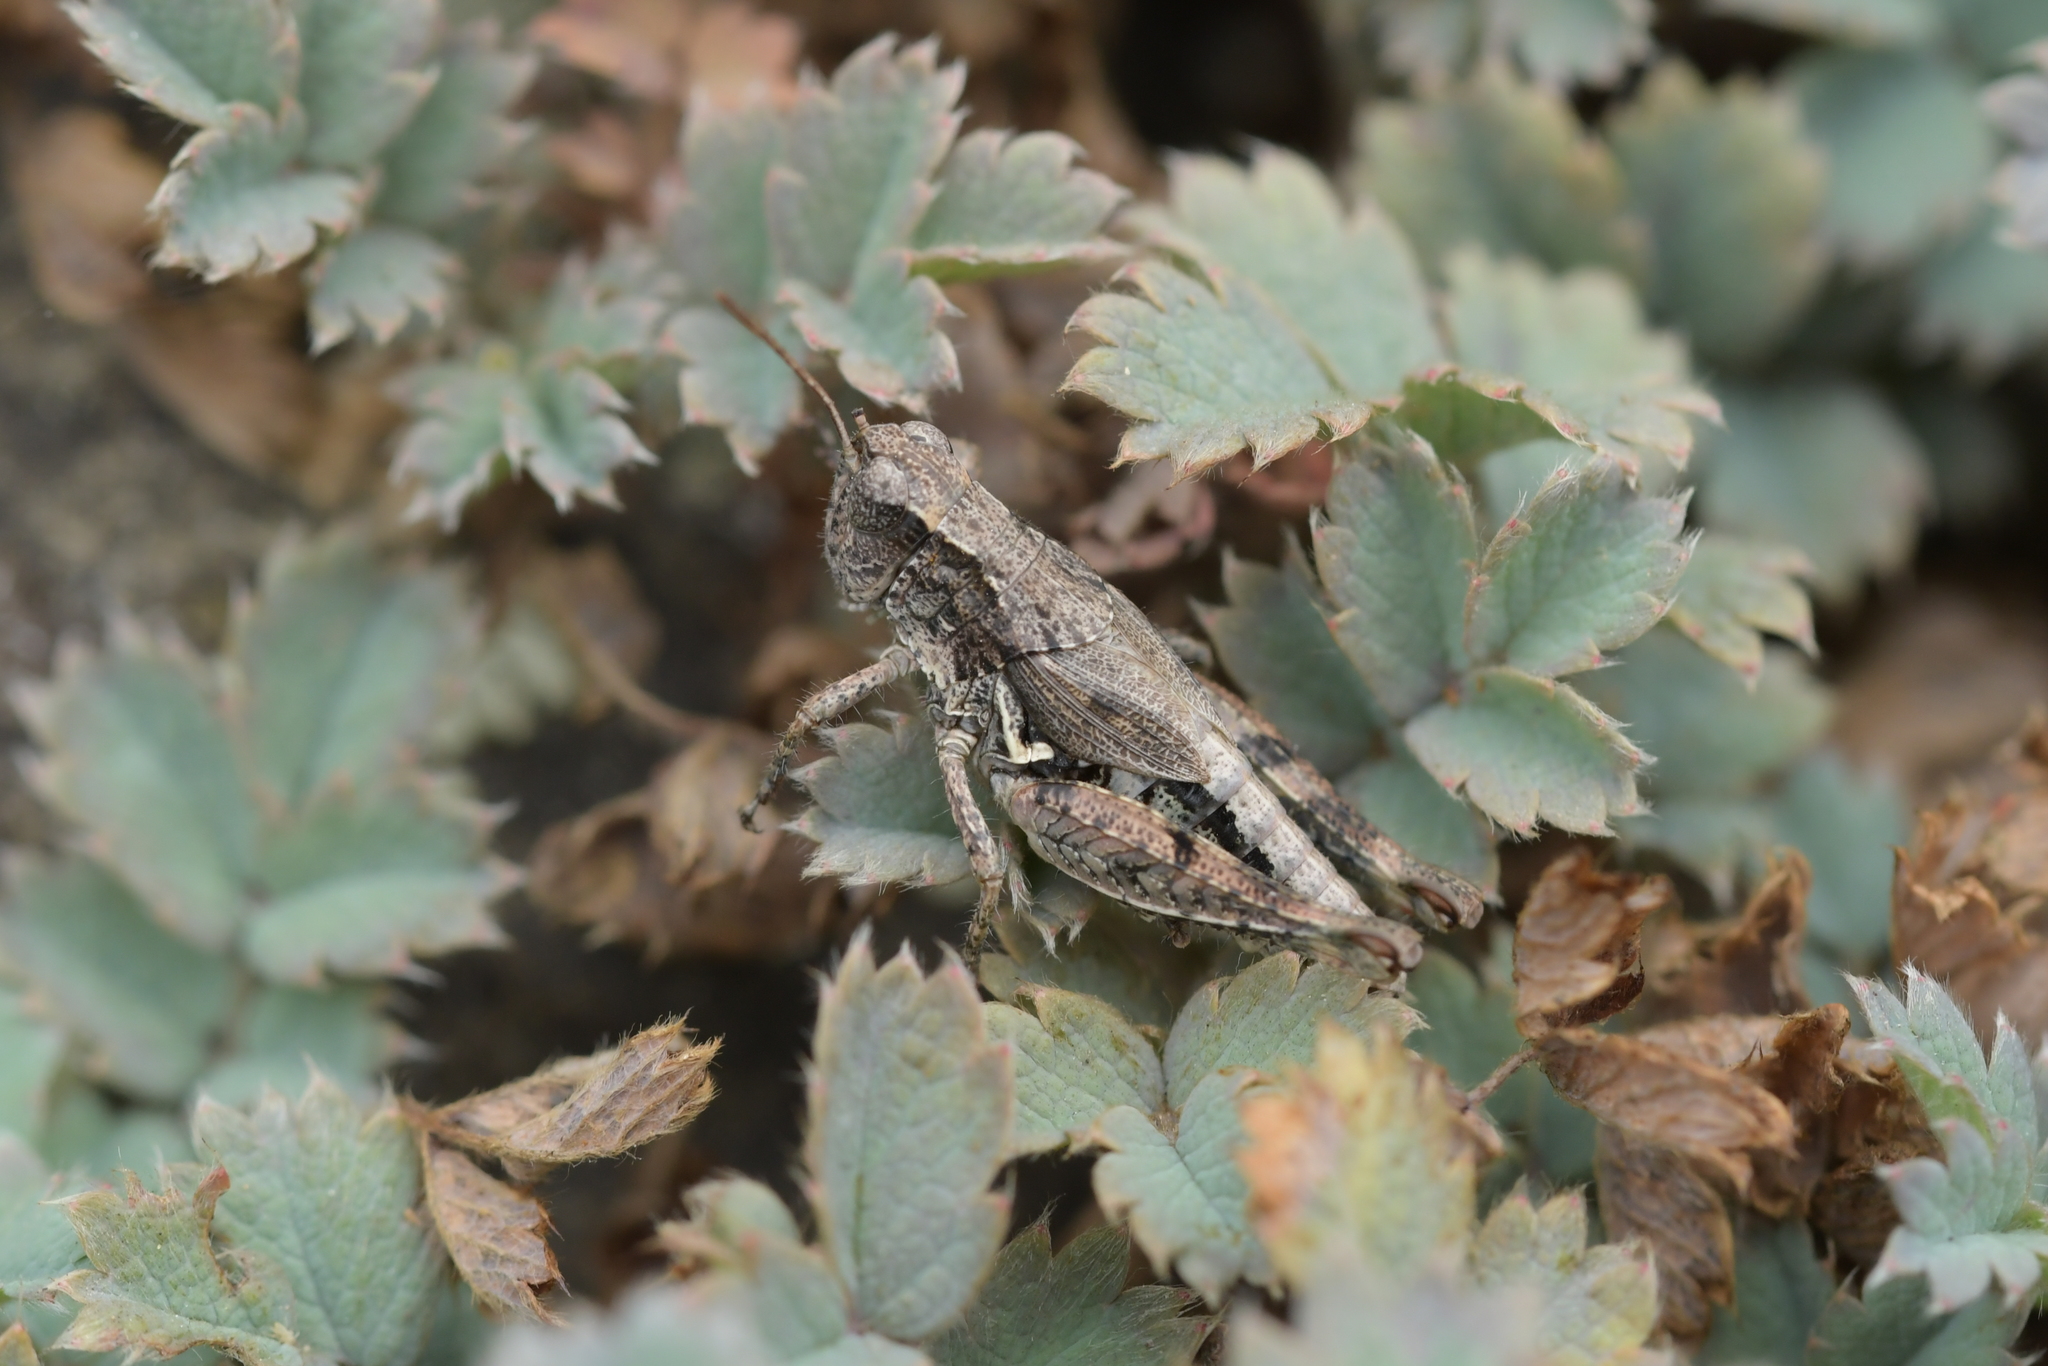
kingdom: Animalia
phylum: Arthropoda
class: Insecta
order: Orthoptera
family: Acrididae
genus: Phaulacridium
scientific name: Phaulacridium marginale
